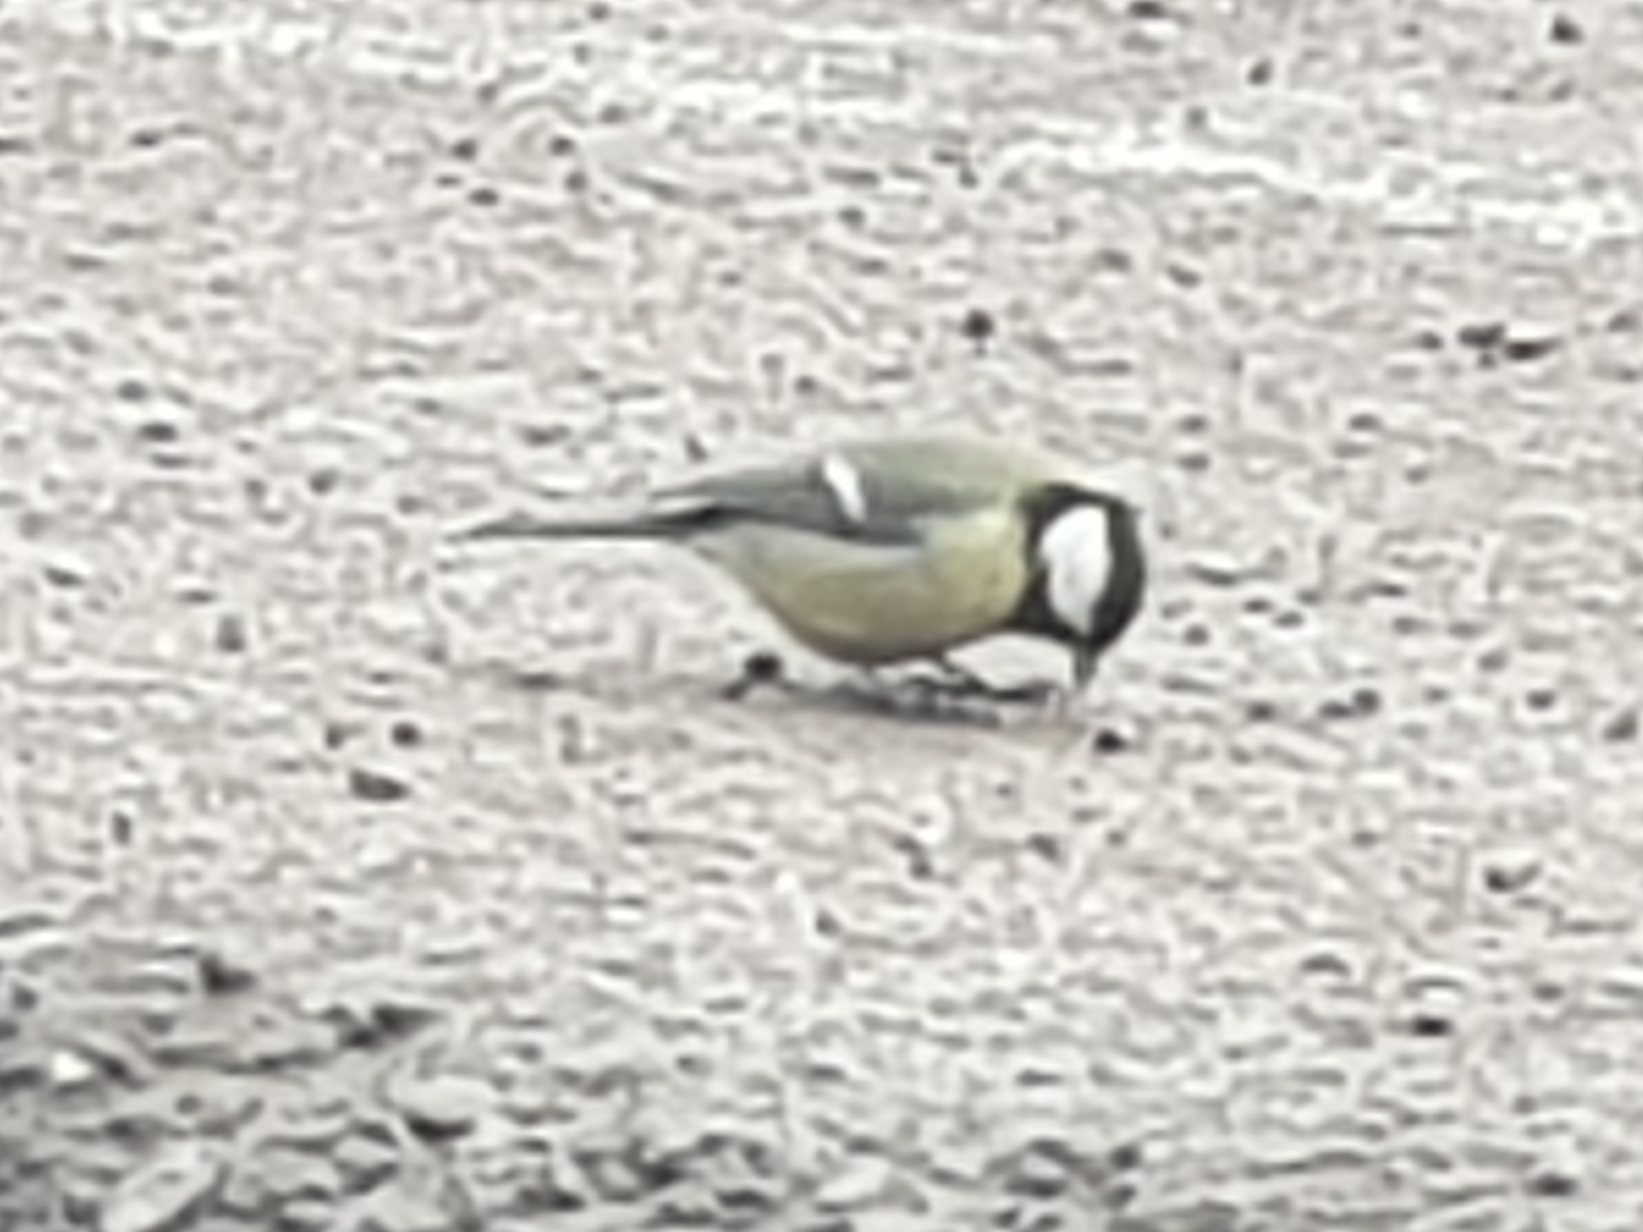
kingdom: Animalia
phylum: Chordata
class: Aves
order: Passeriformes
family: Paridae
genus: Parus
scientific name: Parus major
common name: Great tit
